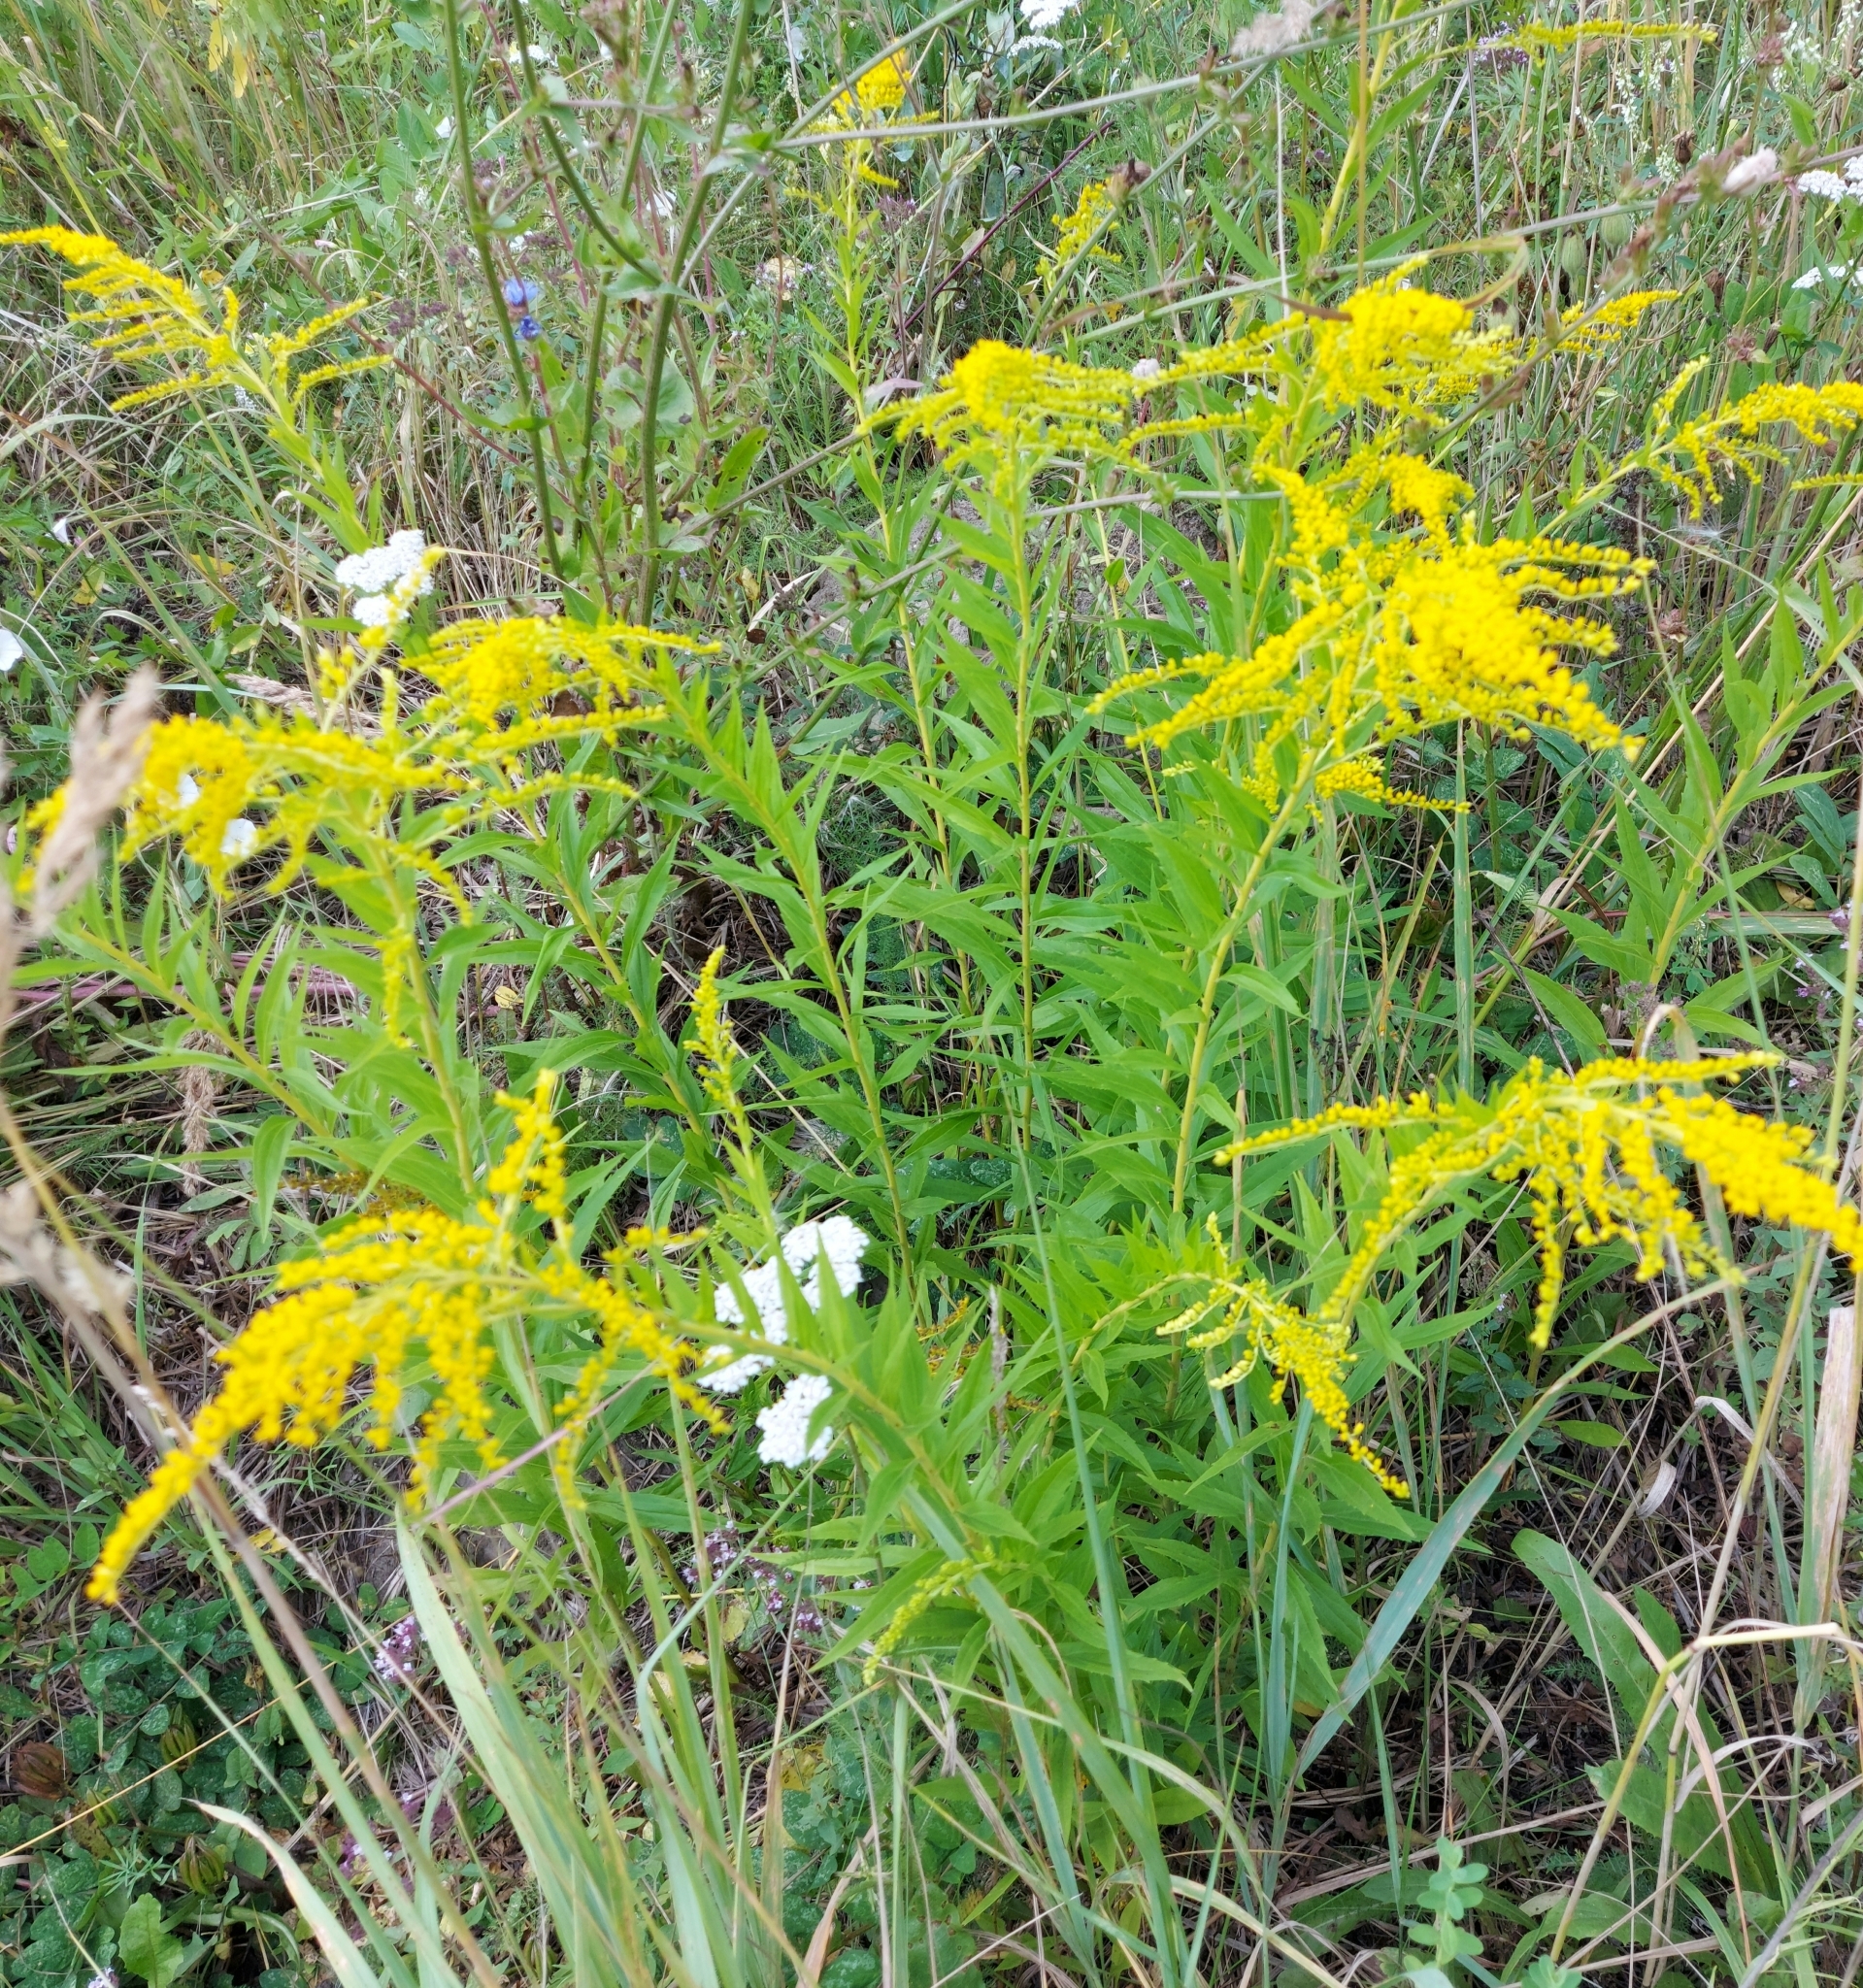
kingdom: Plantae
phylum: Tracheophyta
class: Magnoliopsida
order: Asterales
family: Asteraceae
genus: Solidago
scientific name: Solidago canadensis
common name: Canada goldenrod
